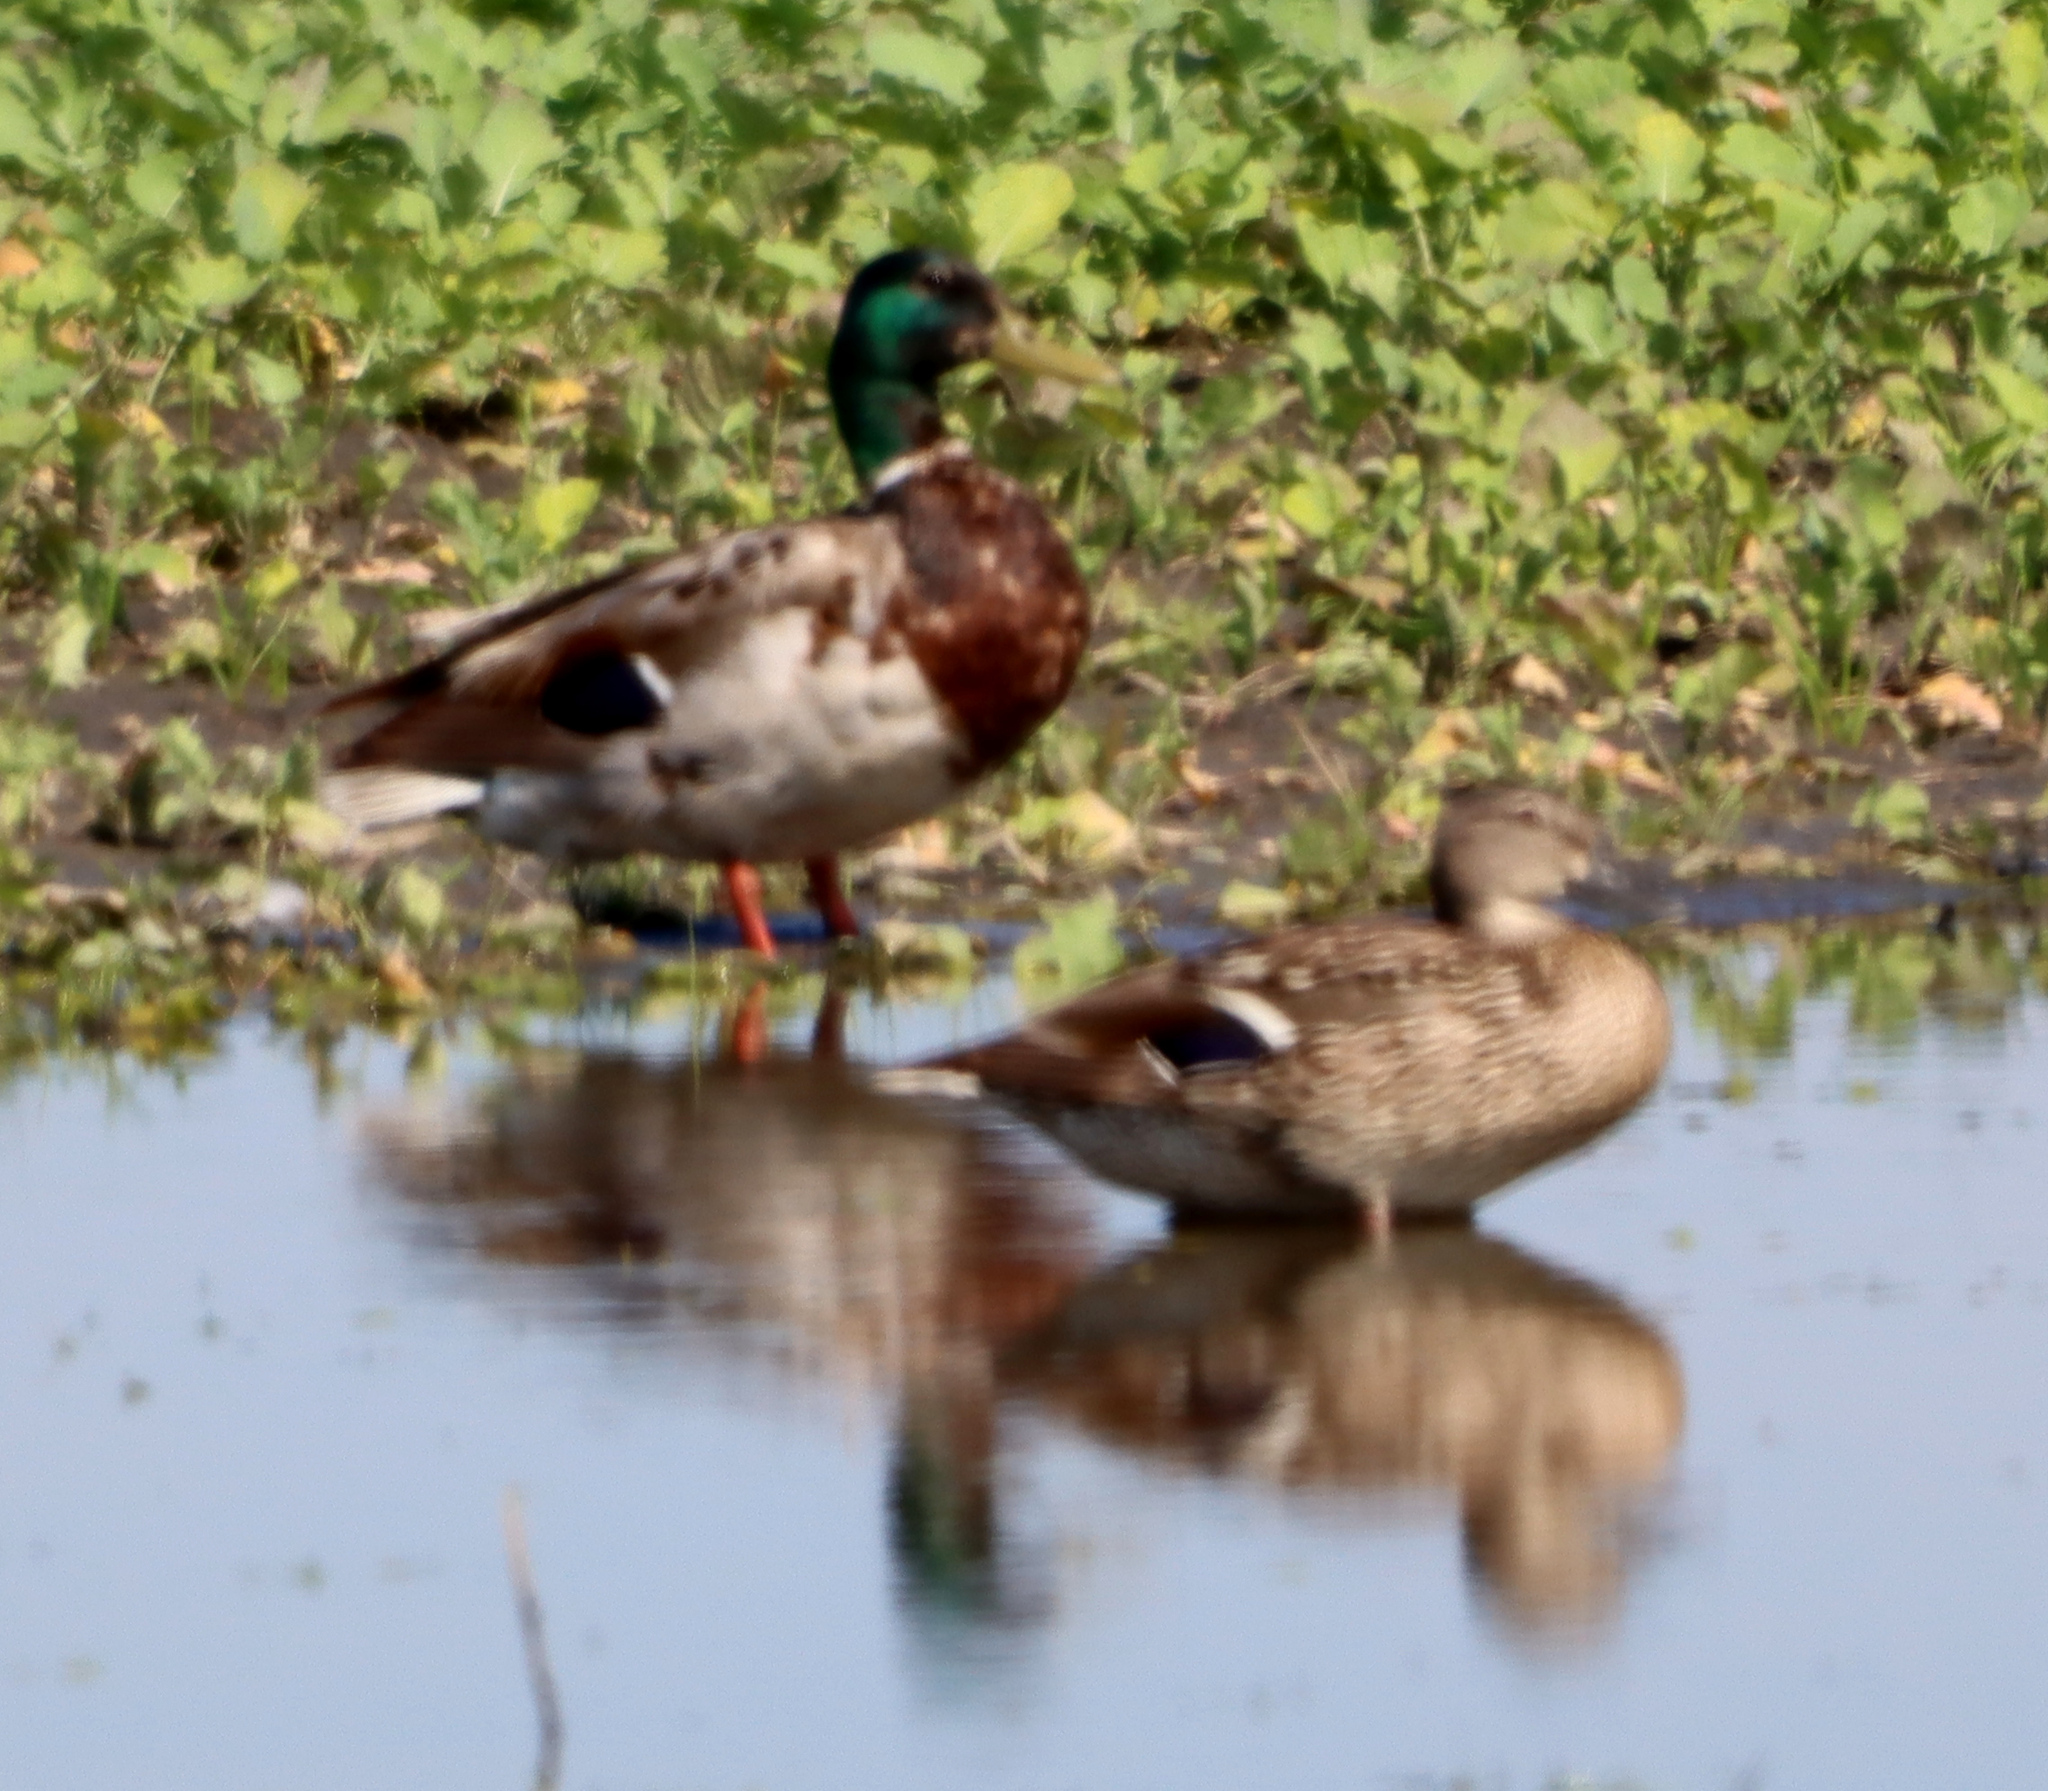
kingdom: Animalia
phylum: Chordata
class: Aves
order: Anseriformes
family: Anatidae
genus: Anas
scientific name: Anas platyrhynchos
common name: Mallard
